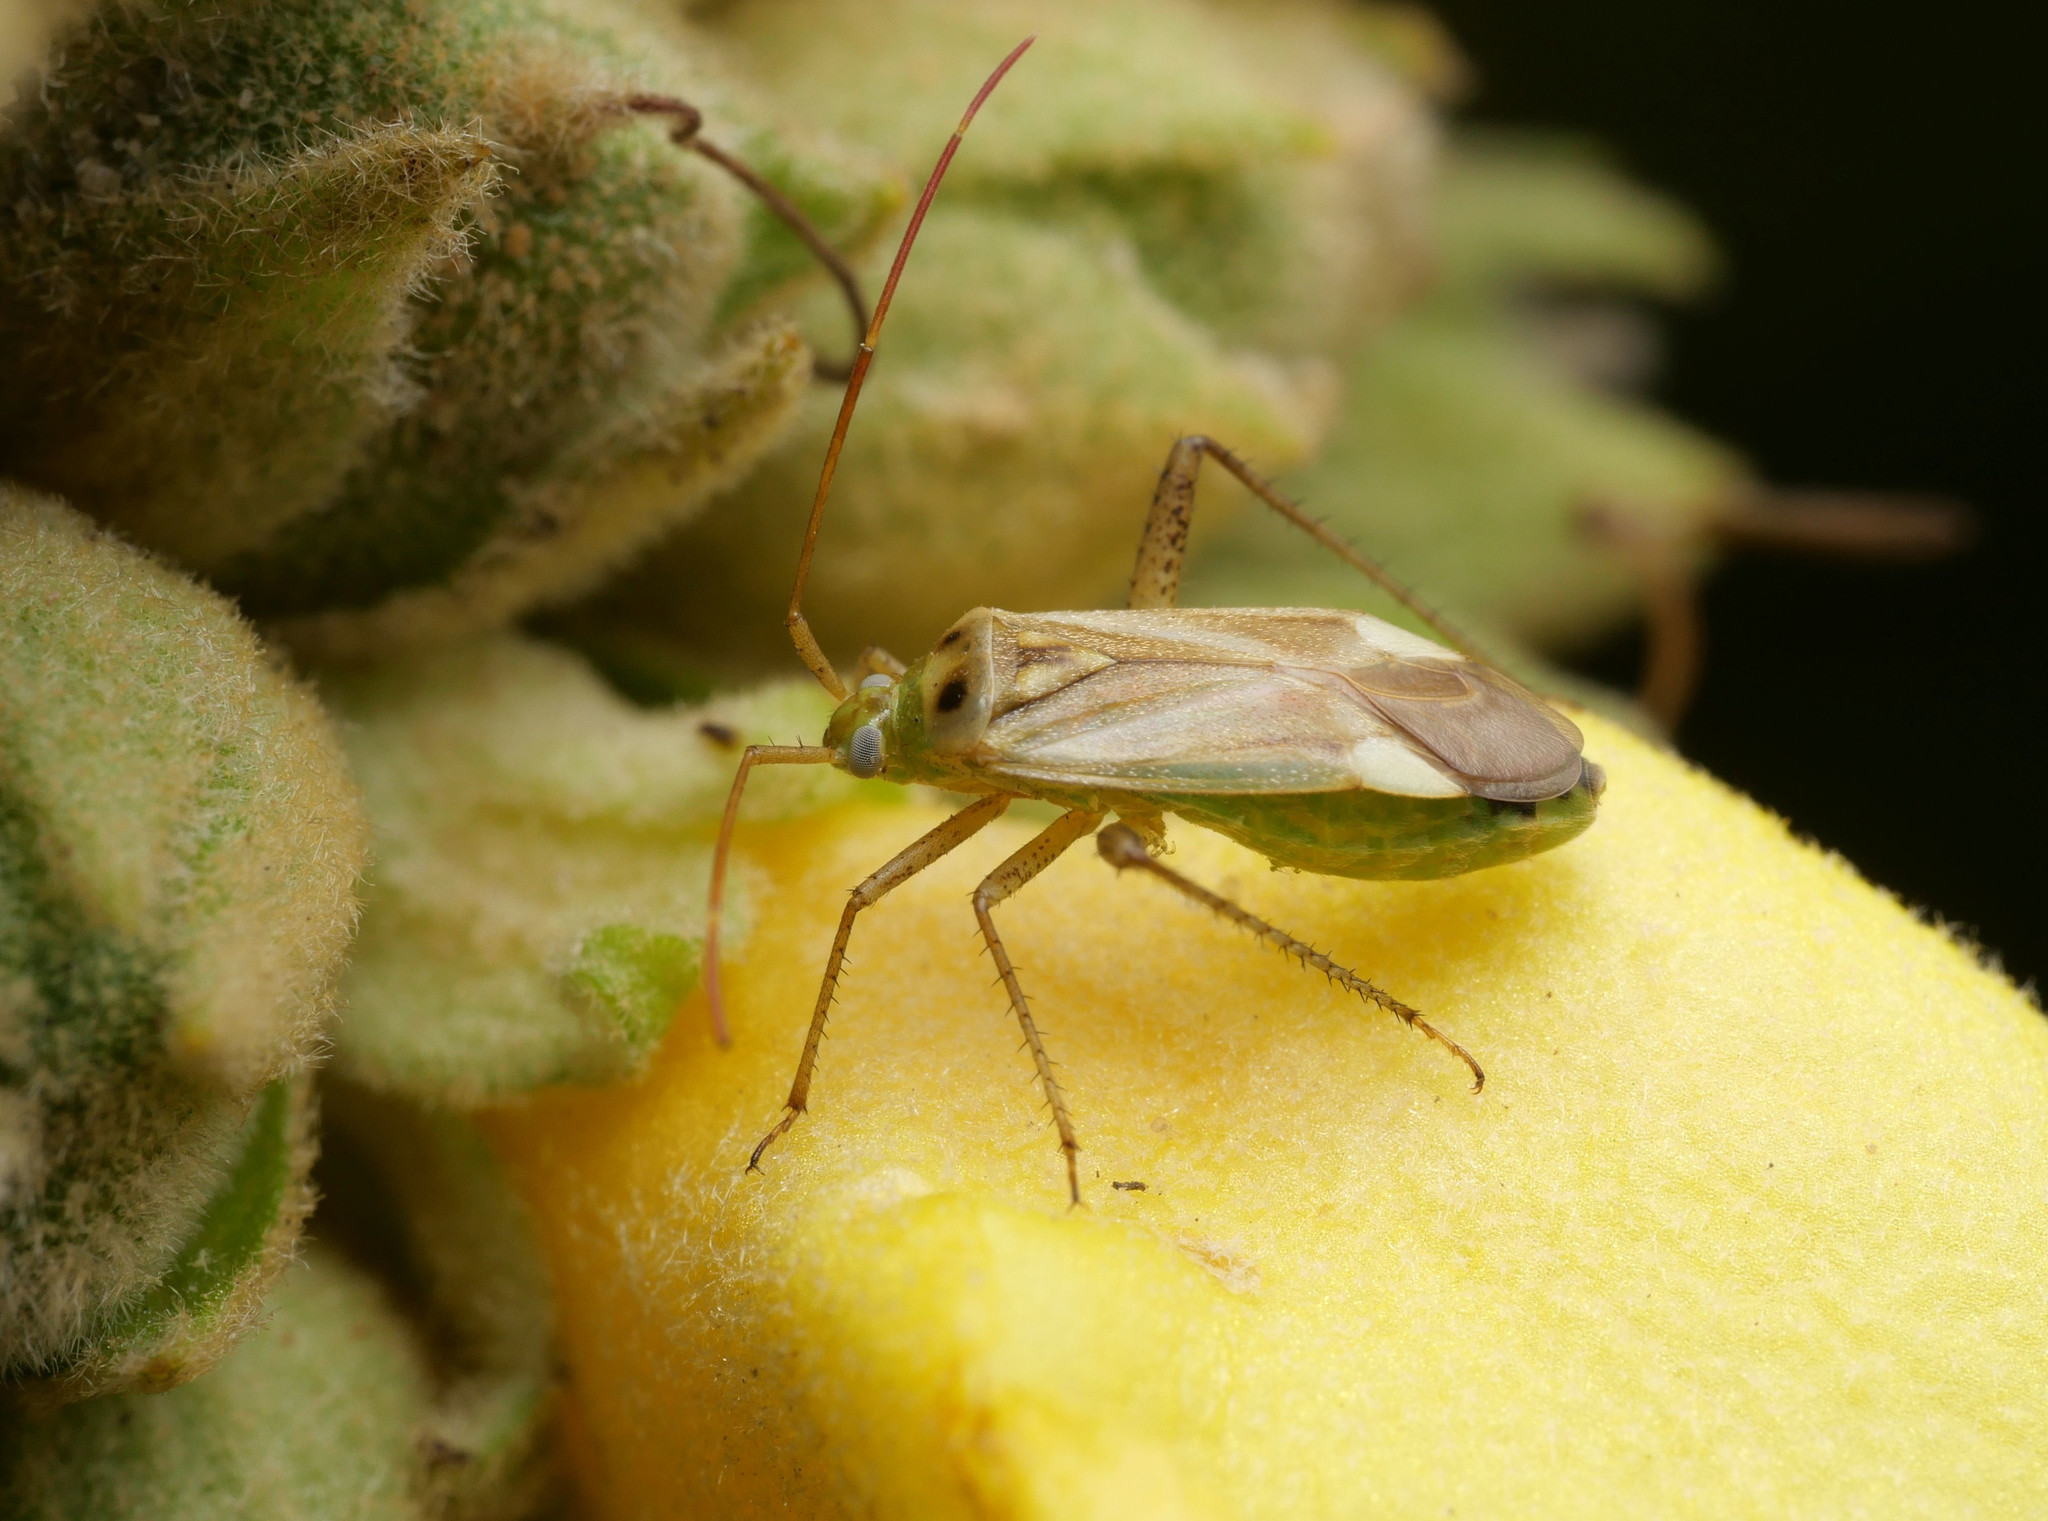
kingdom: Animalia
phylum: Arthropoda
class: Insecta
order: Hemiptera
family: Miridae
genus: Adelphocoris
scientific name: Adelphocoris lineolatus
